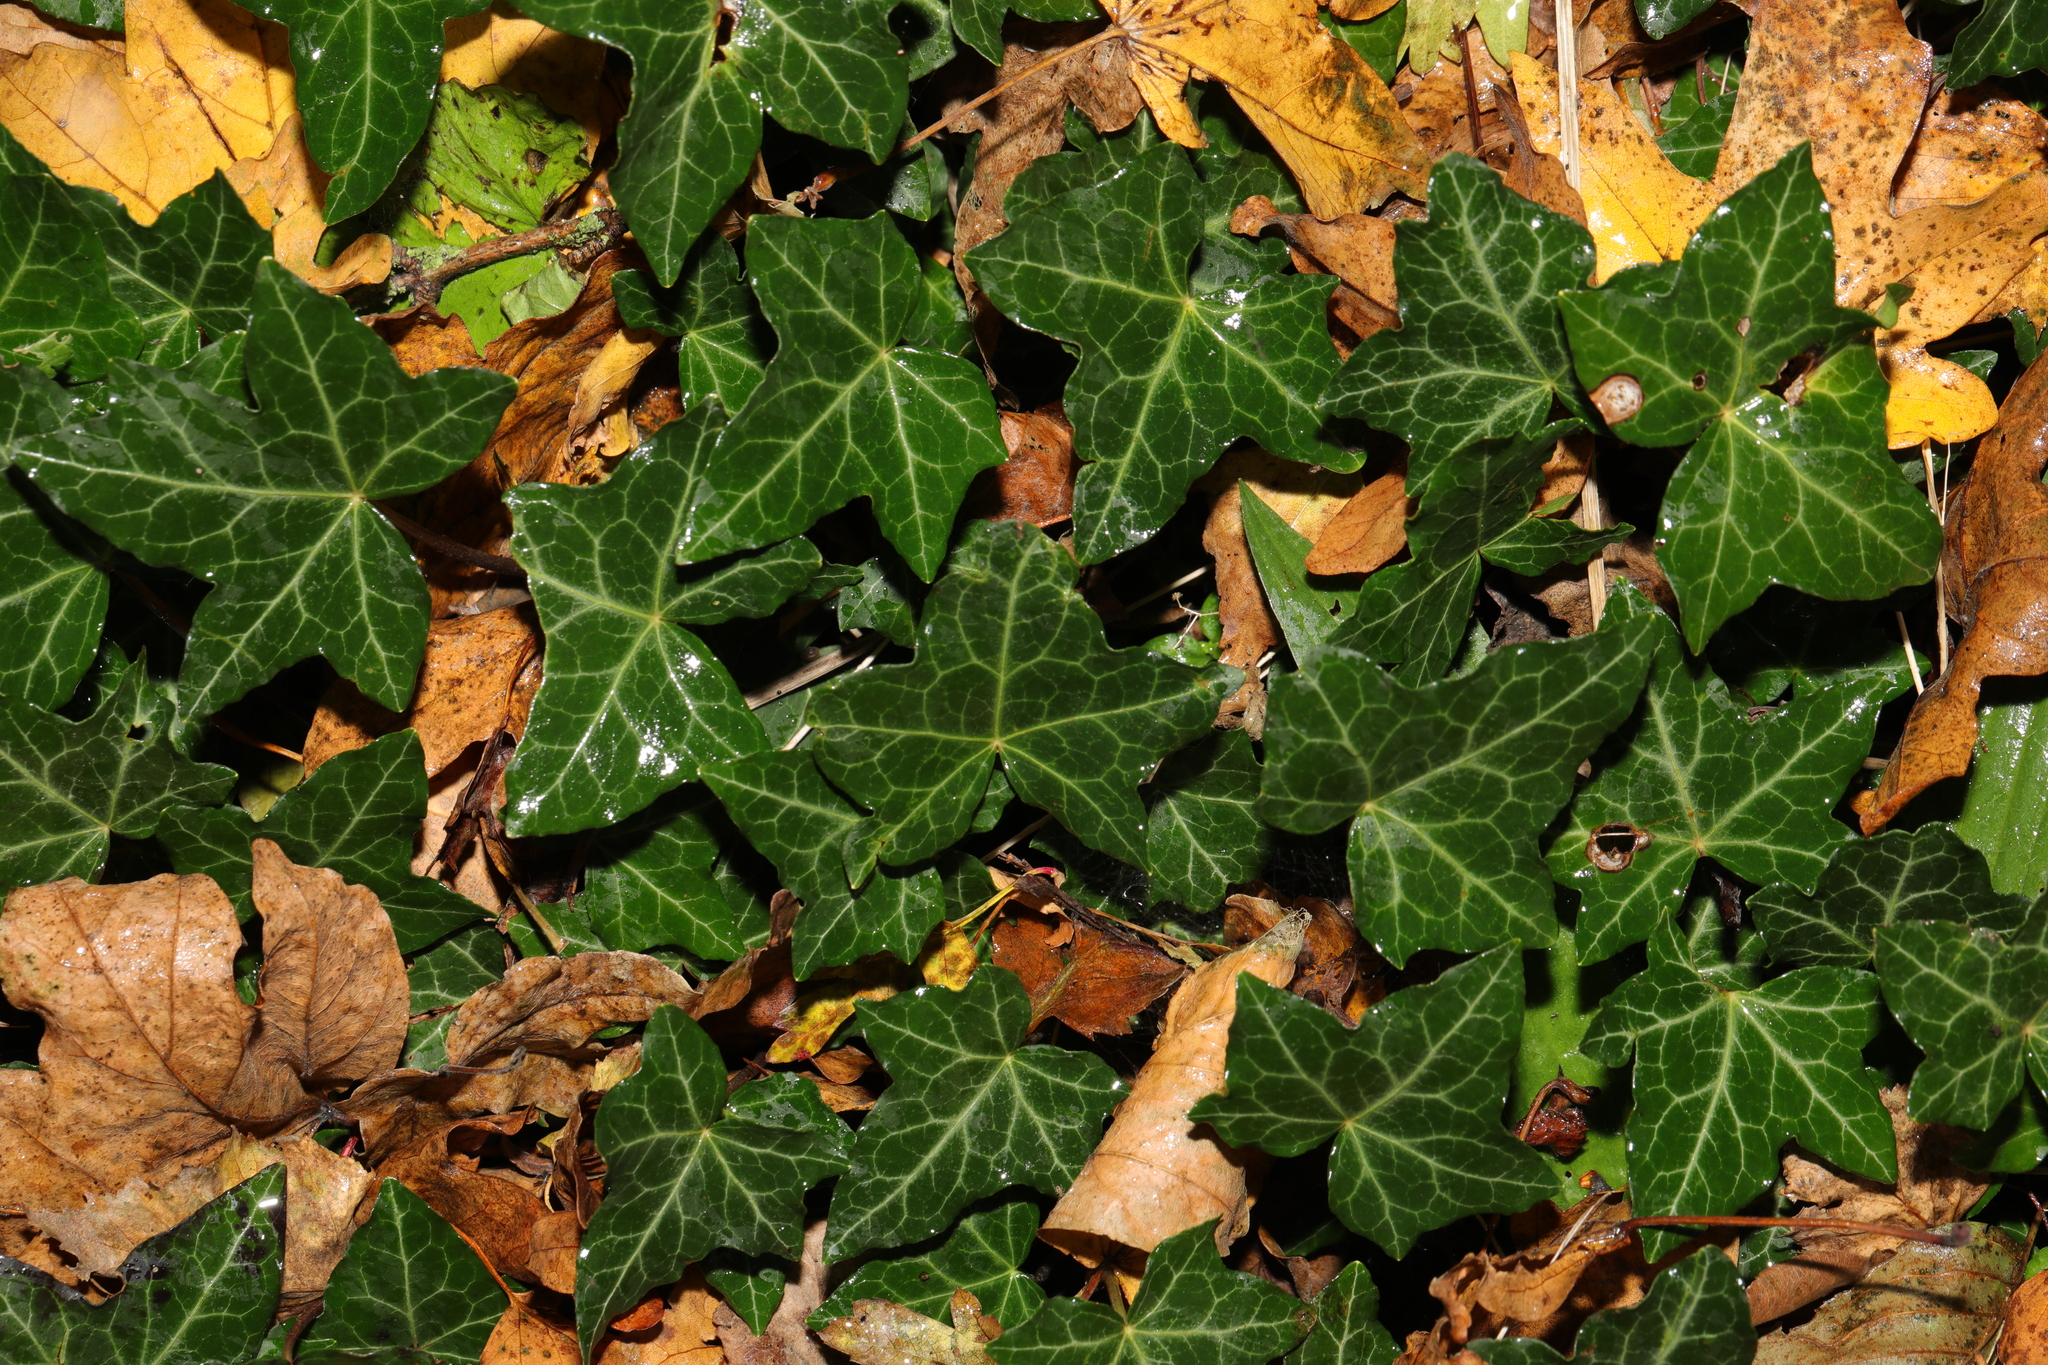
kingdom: Plantae
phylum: Tracheophyta
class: Magnoliopsida
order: Apiales
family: Araliaceae
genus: Hedera
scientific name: Hedera helix
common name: Ivy
